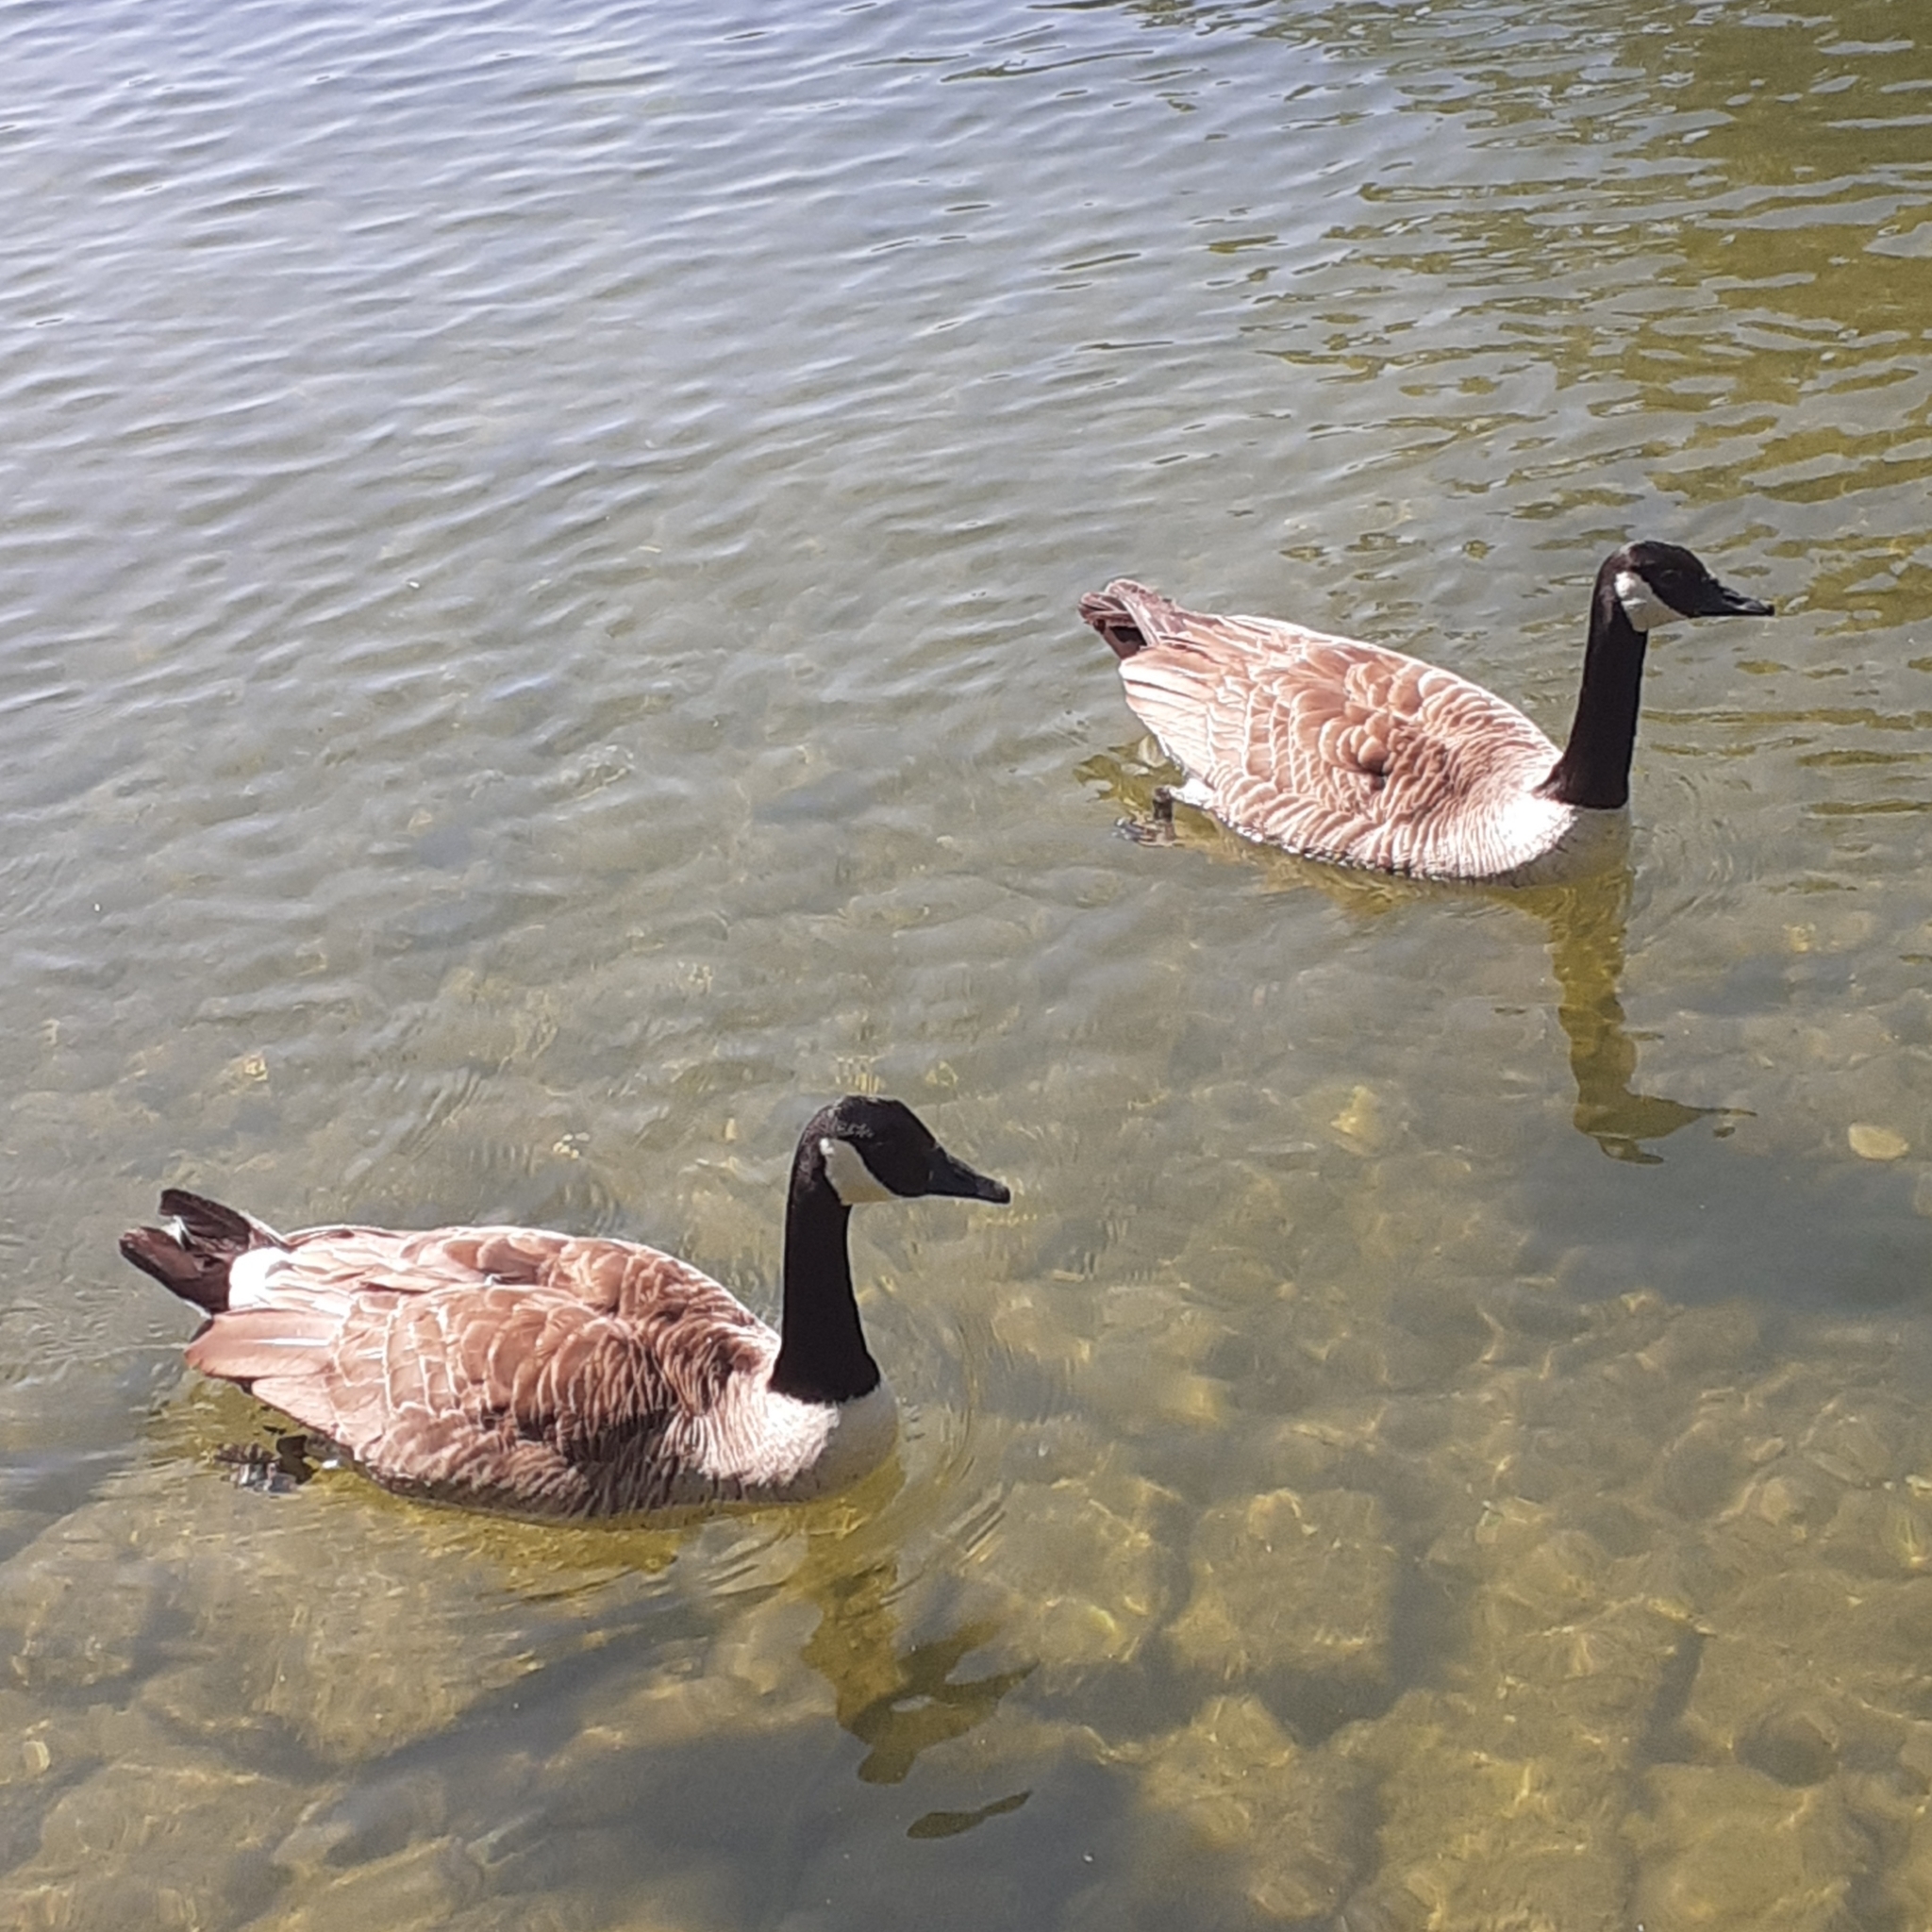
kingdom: Animalia
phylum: Chordata
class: Aves
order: Anseriformes
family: Anatidae
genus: Branta
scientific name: Branta canadensis
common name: Canada goose
